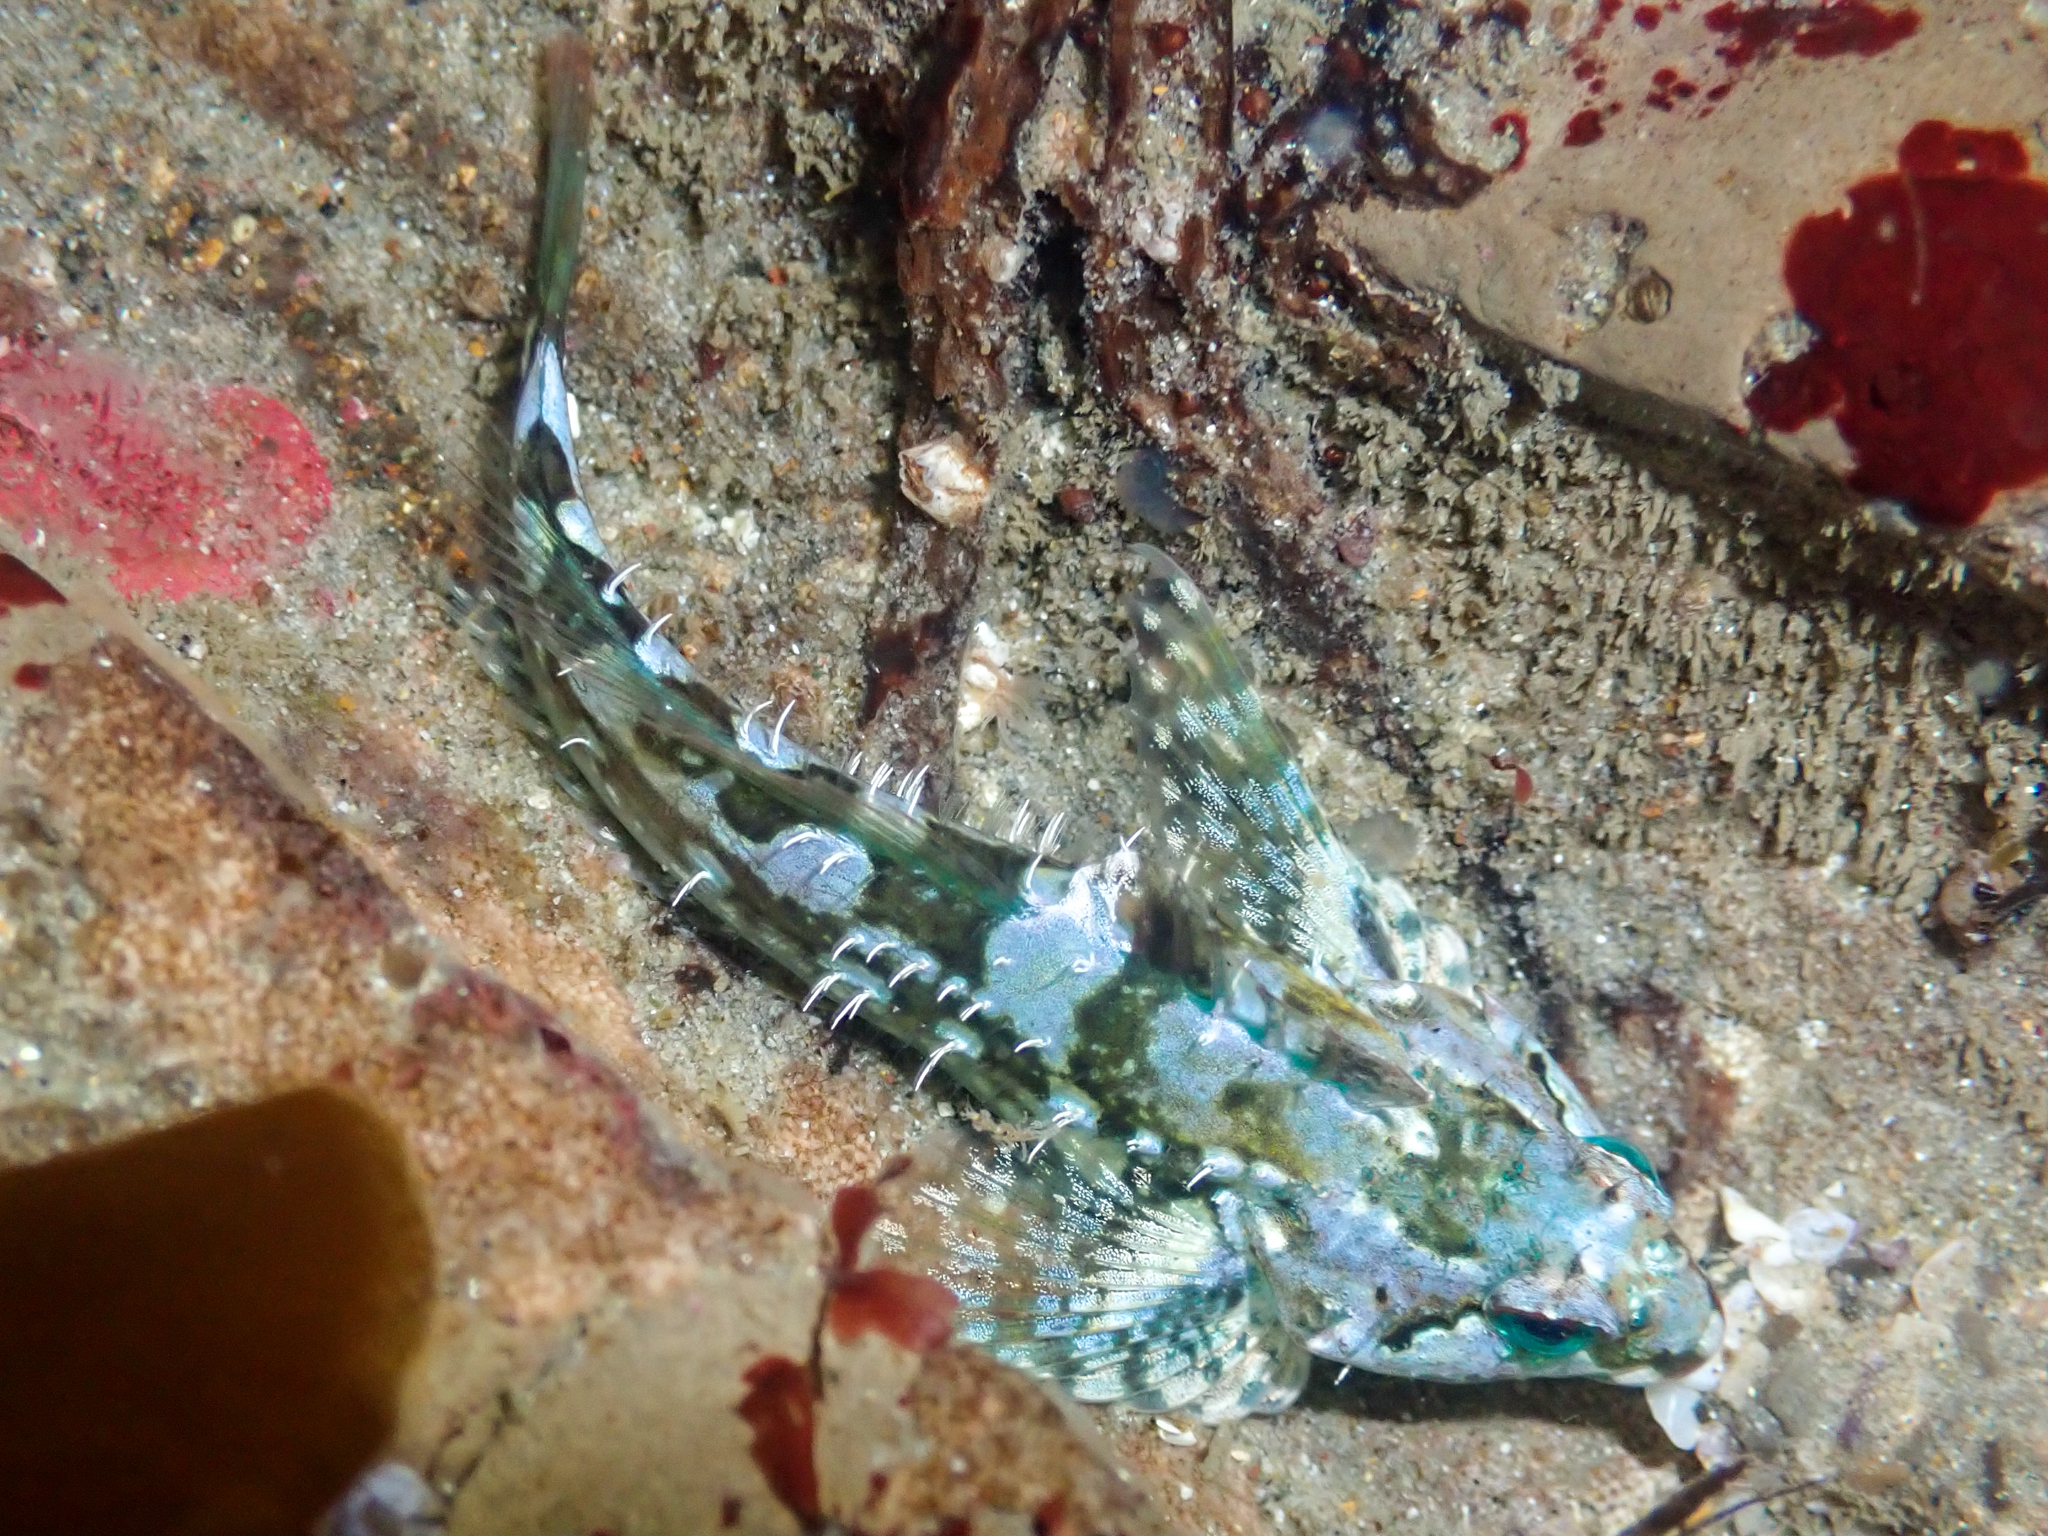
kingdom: Animalia
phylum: Chordata
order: Scorpaeniformes
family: Cottidae
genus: Oligocottus
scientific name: Oligocottus snyderi
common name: Fluffy sculpin
